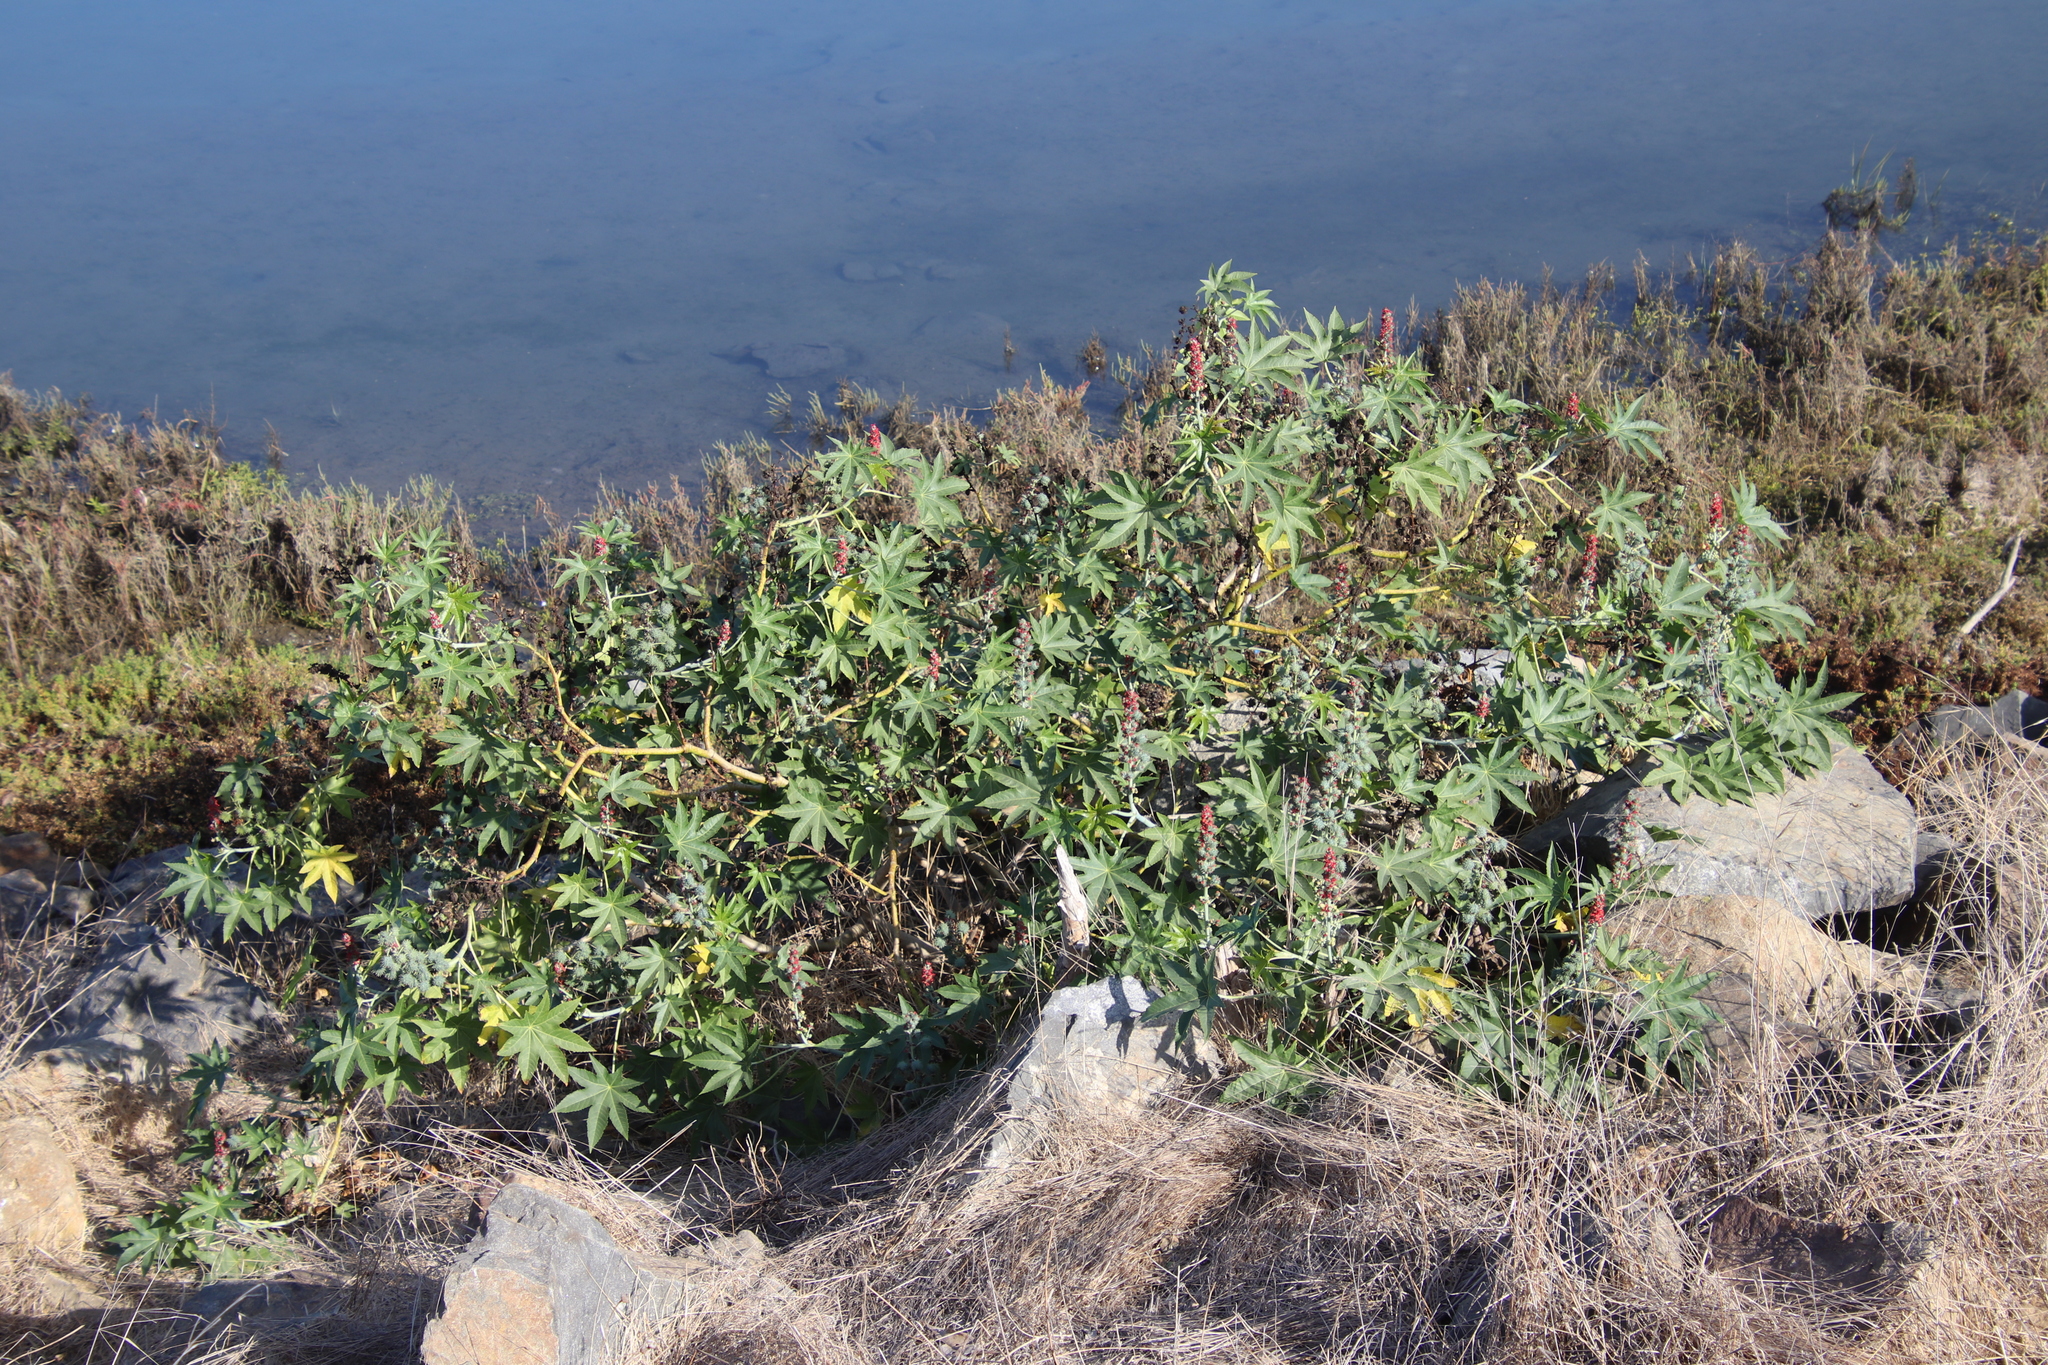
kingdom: Plantae
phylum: Tracheophyta
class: Magnoliopsida
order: Malpighiales
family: Euphorbiaceae
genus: Ricinus
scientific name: Ricinus communis
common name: Castor-oil-plant
